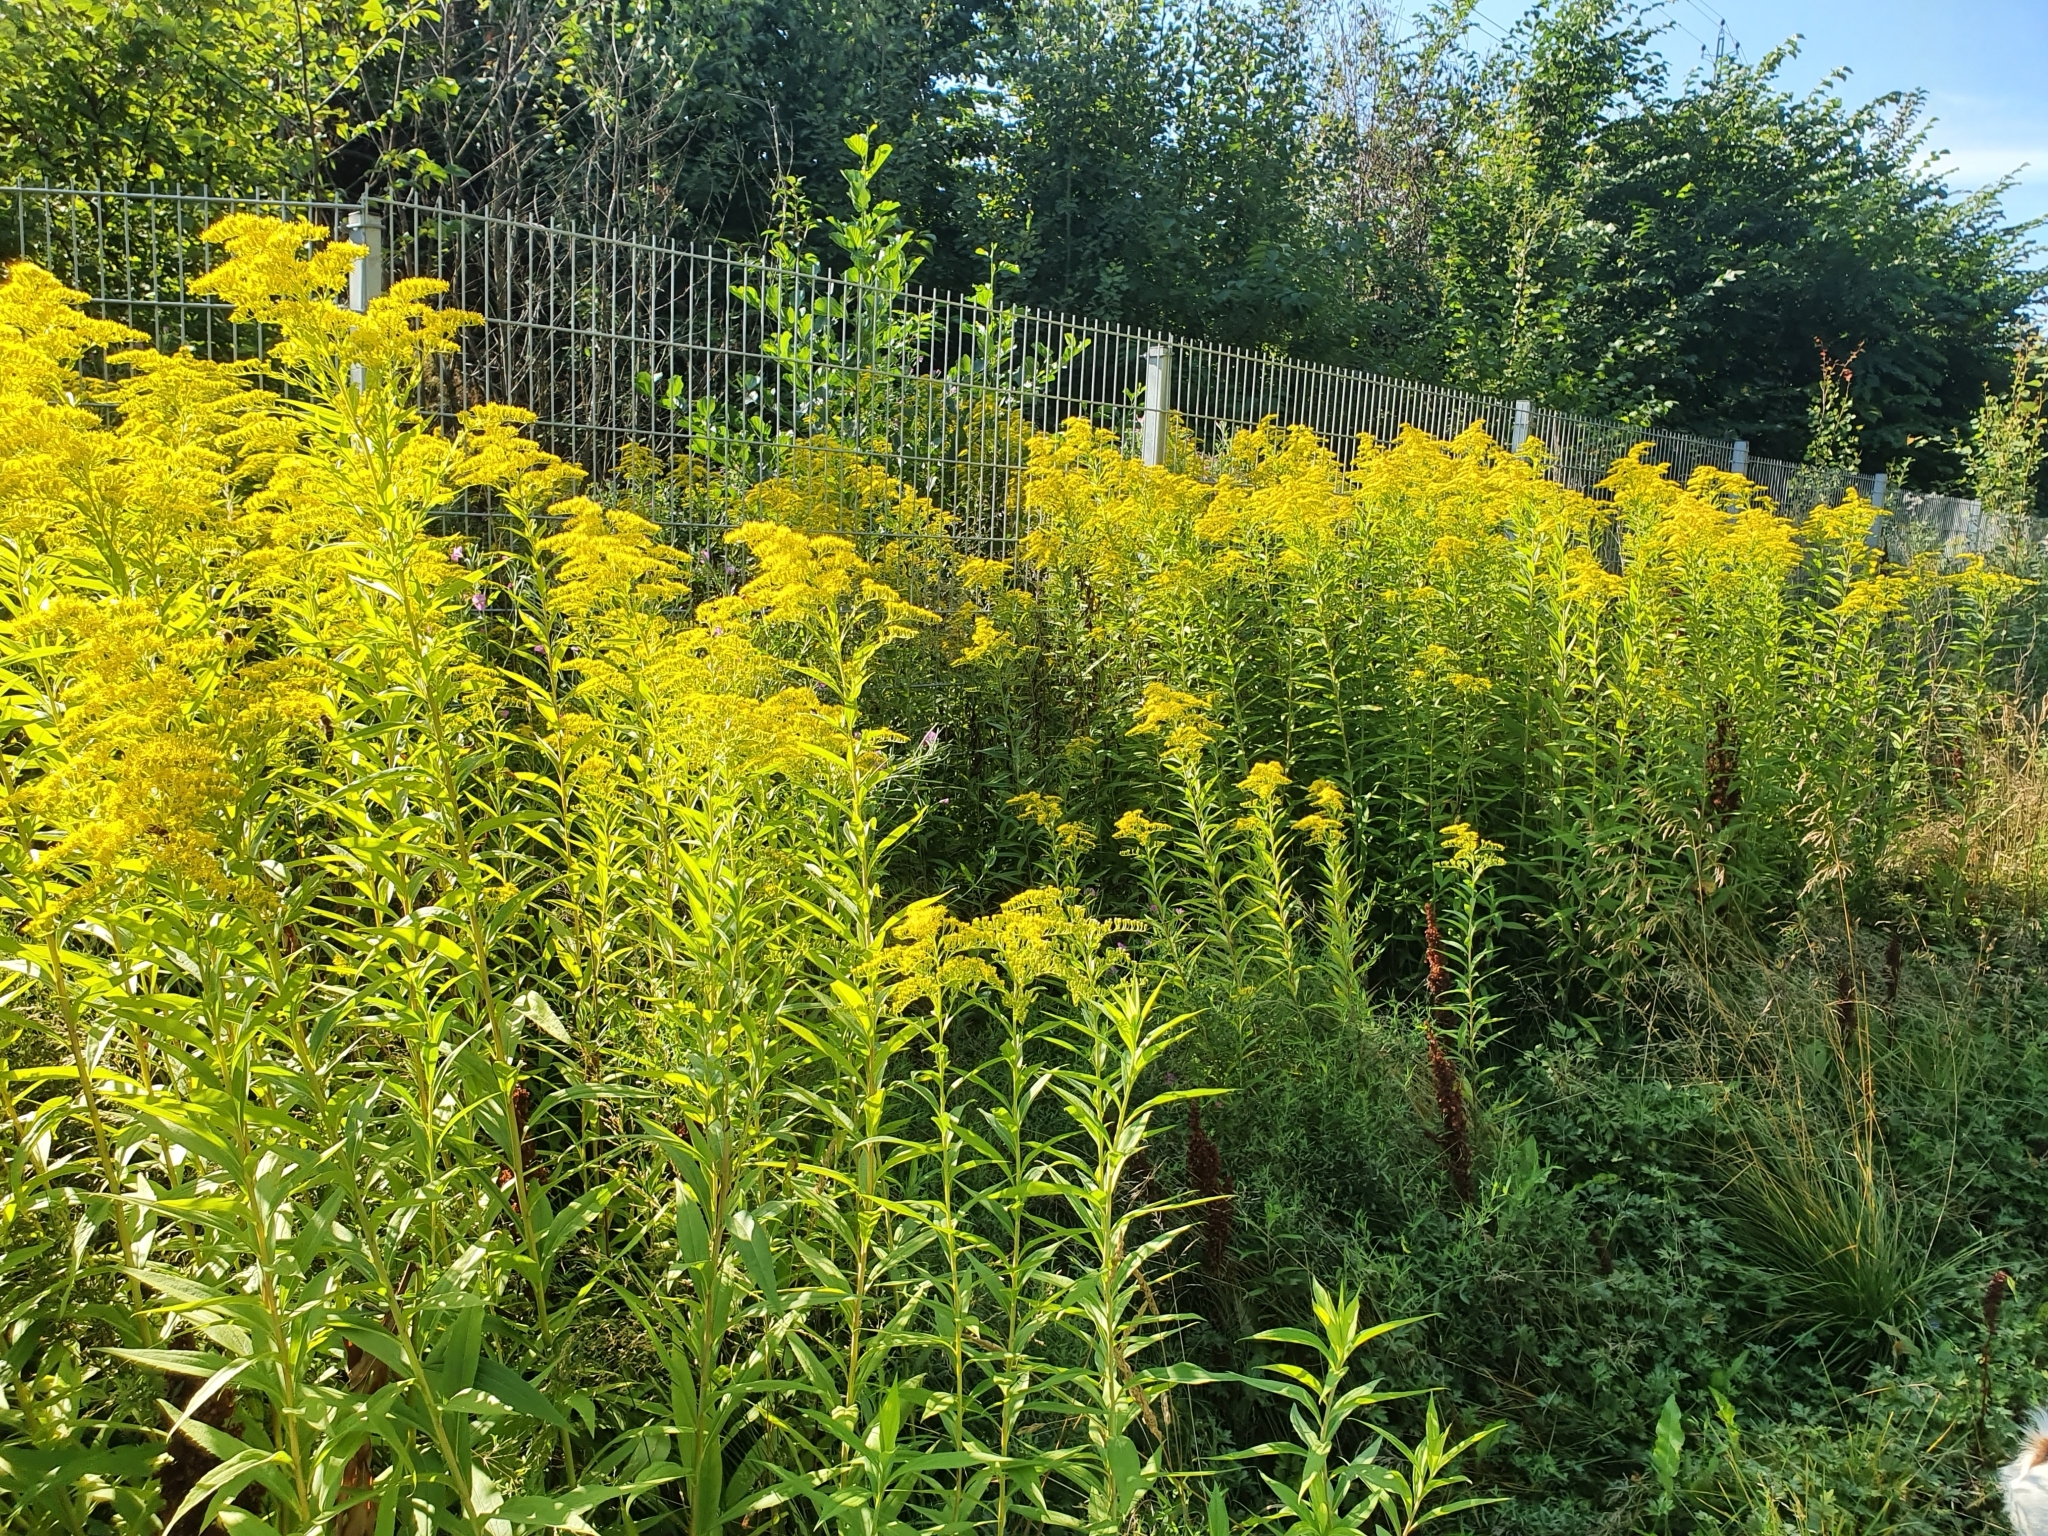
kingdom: Plantae
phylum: Tracheophyta
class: Magnoliopsida
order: Asterales
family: Asteraceae
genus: Solidago
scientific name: Solidago canadensis
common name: Canada goldenrod
